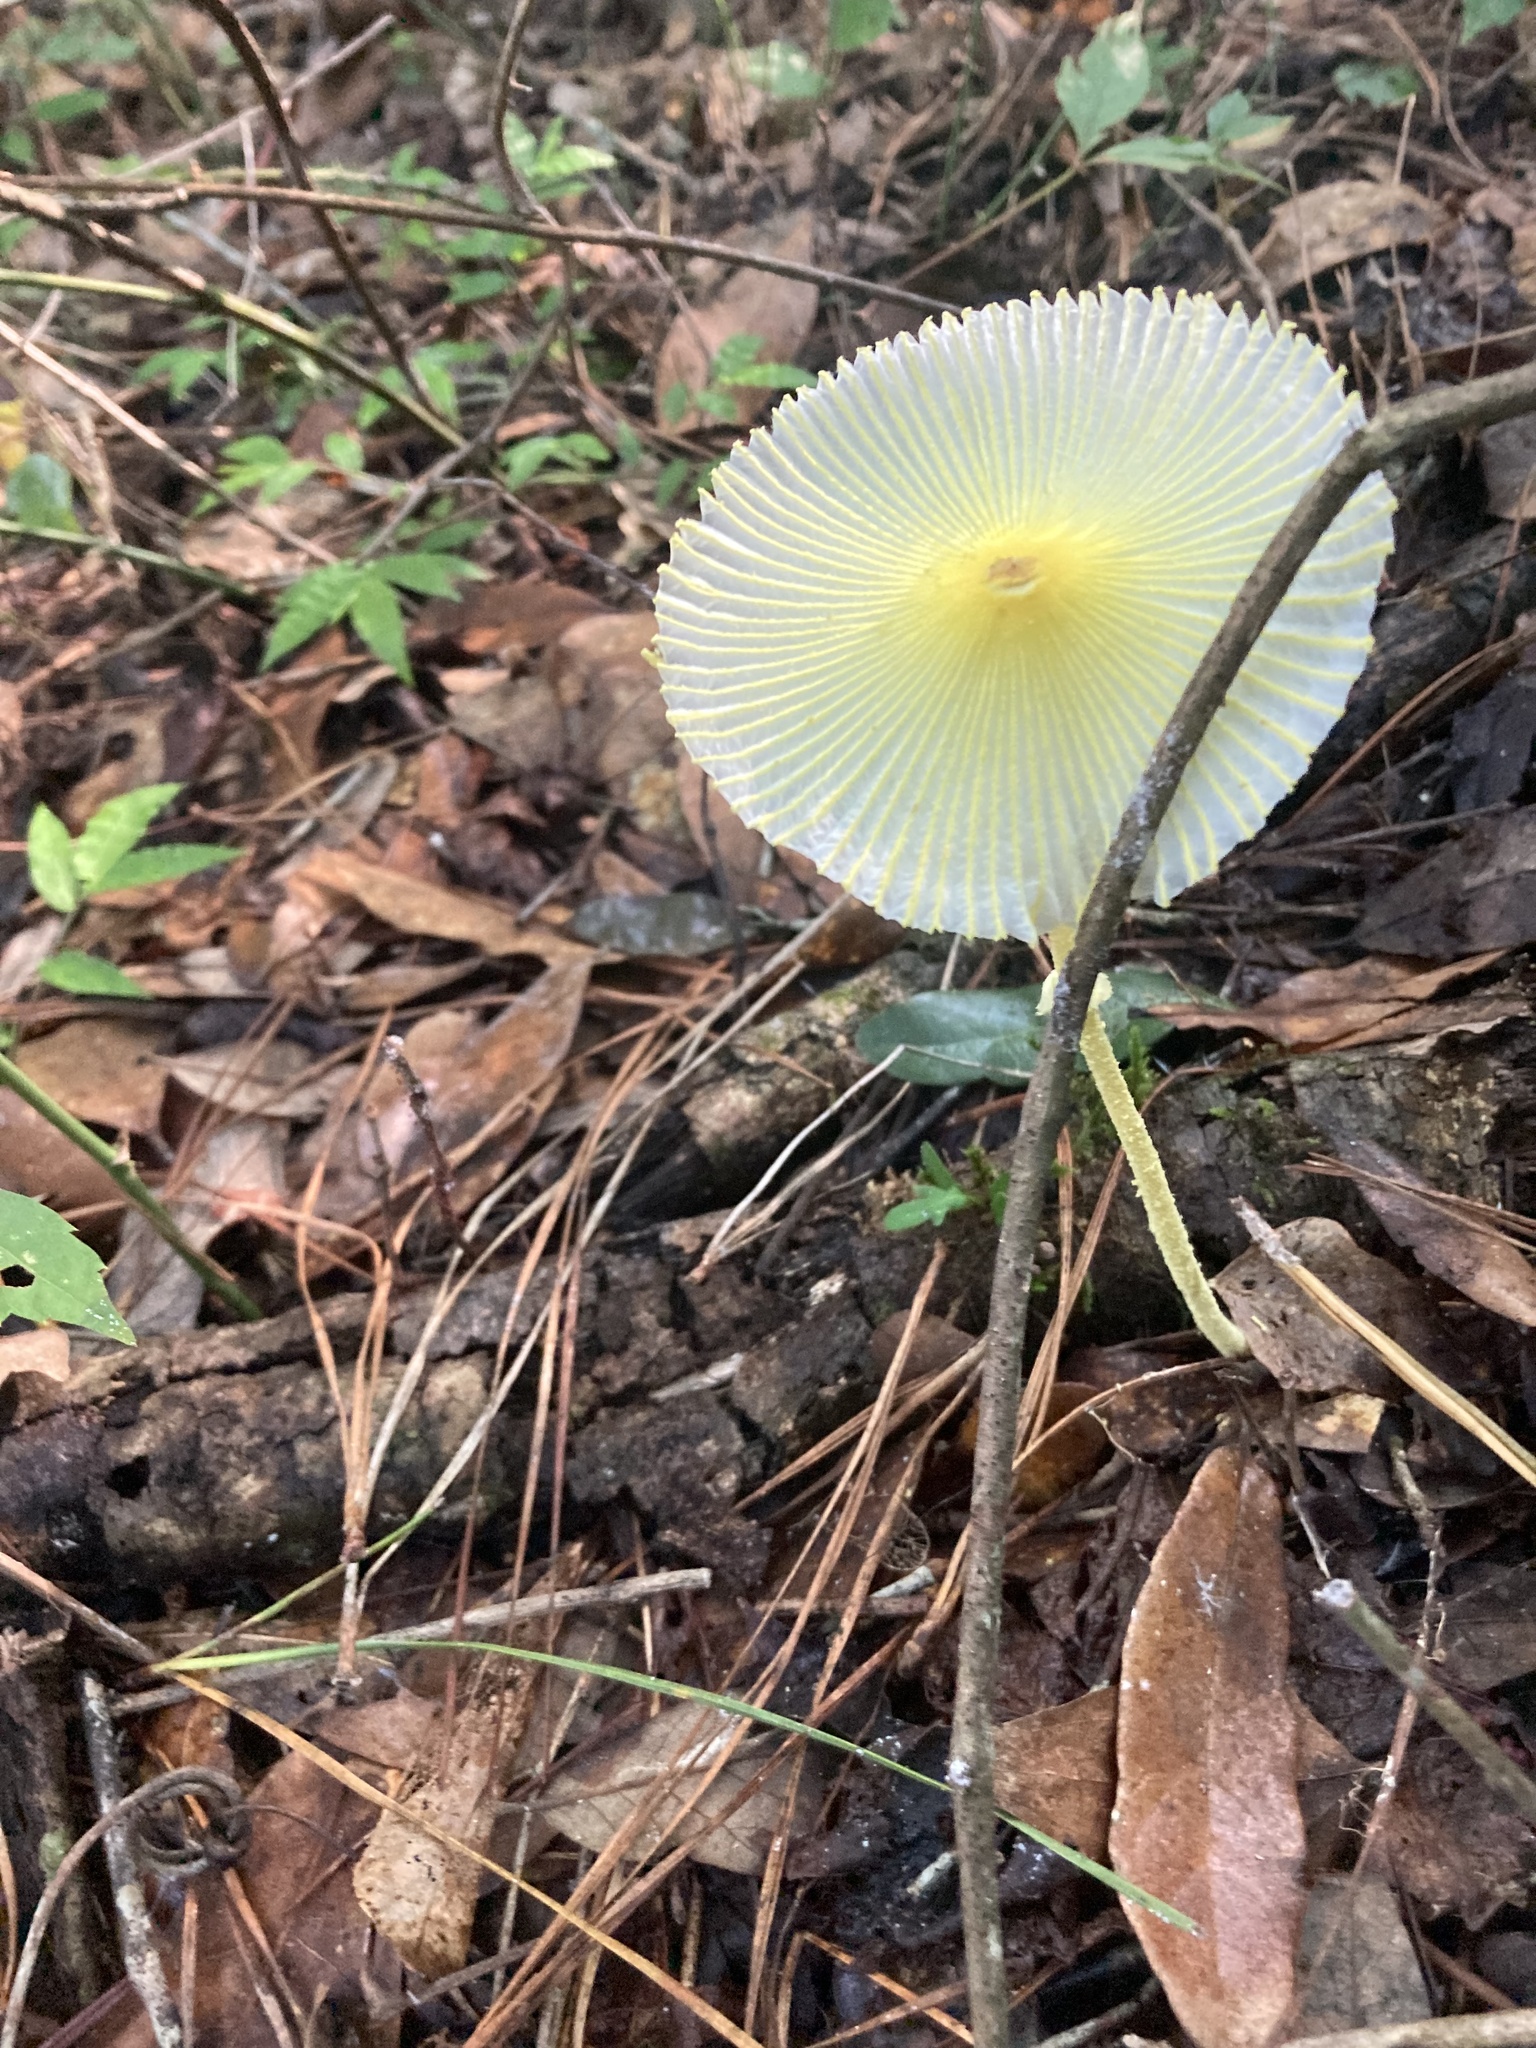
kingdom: Fungi
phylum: Basidiomycota
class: Agaricomycetes
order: Agaricales
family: Agaricaceae
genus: Leucocoprinus
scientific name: Leucocoprinus fragilissimus
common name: Fragile dapperling
